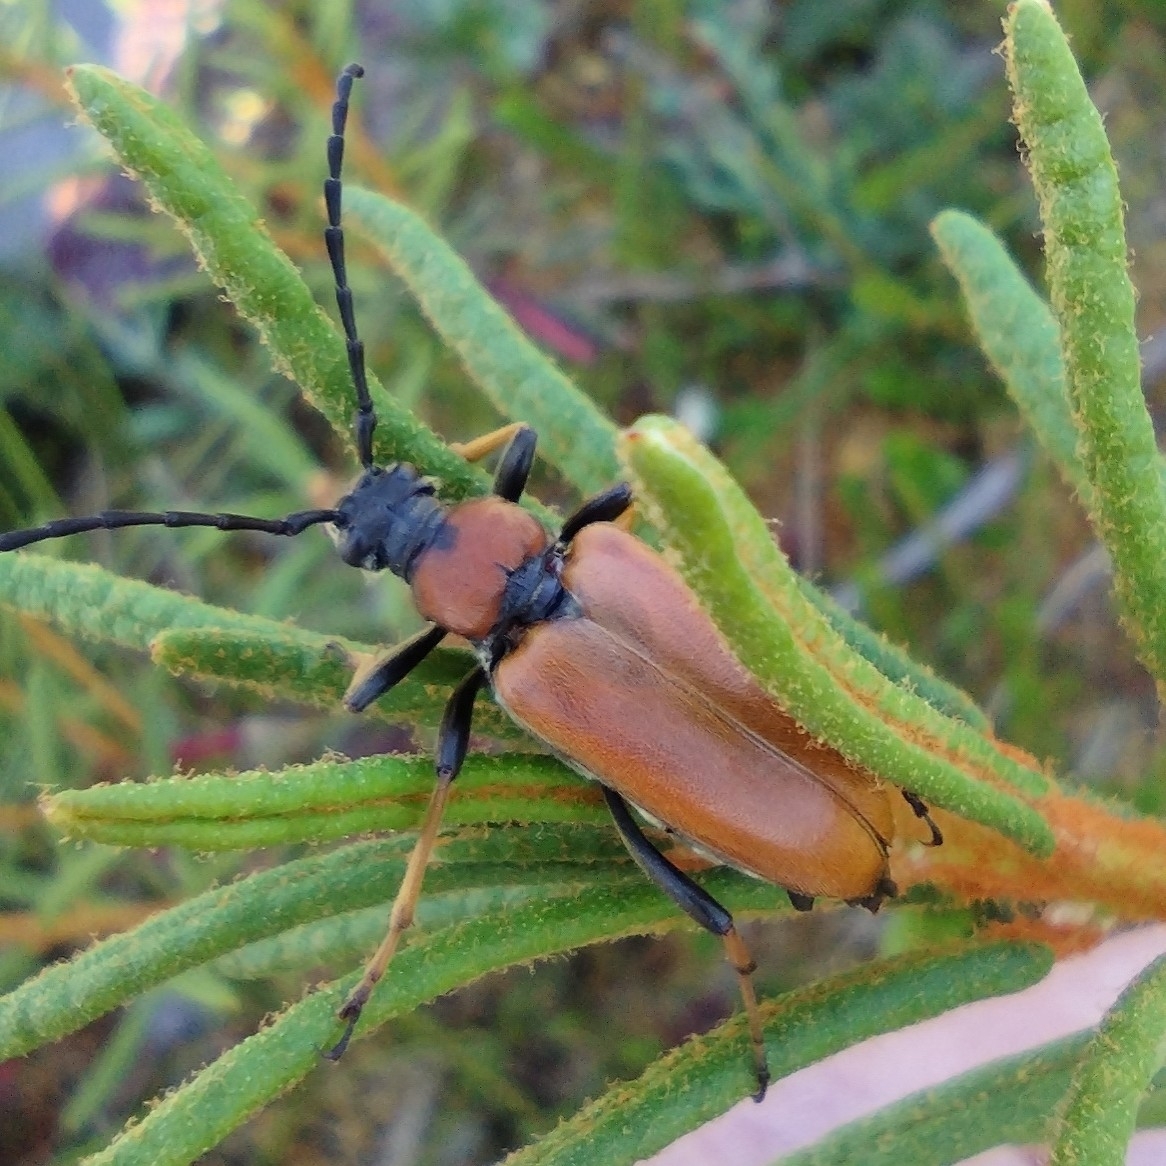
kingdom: Animalia
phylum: Arthropoda
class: Insecta
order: Coleoptera
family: Cerambycidae
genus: Stictoleptura
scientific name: Stictoleptura rubra
